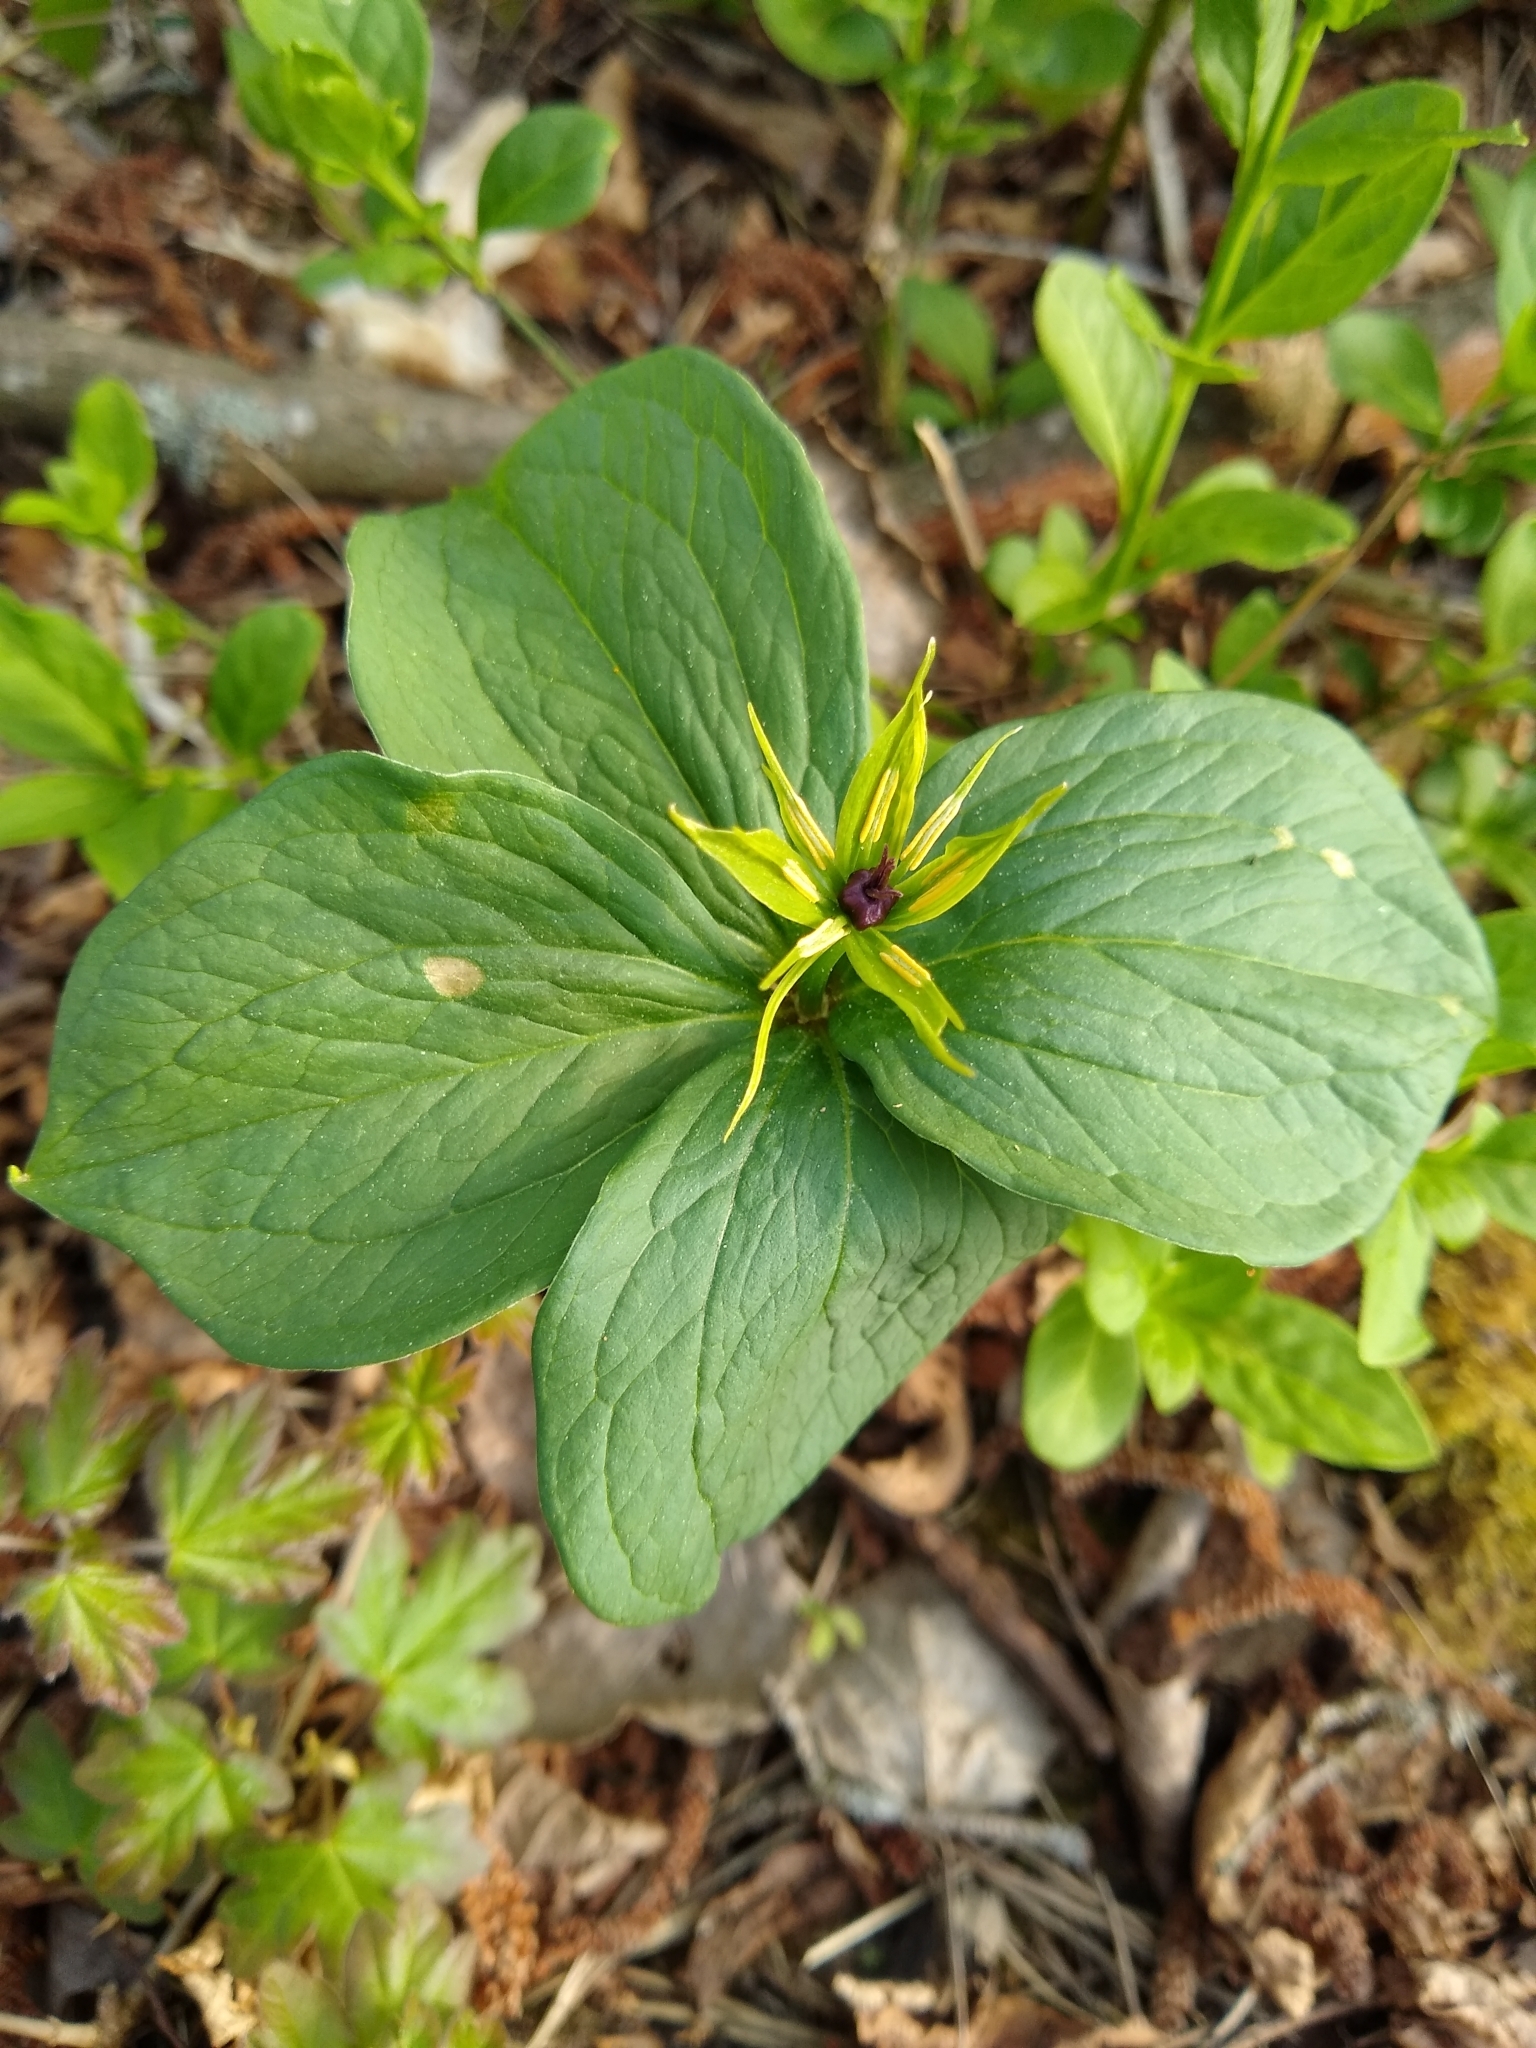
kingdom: Plantae
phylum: Tracheophyta
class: Liliopsida
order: Liliales
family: Melanthiaceae
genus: Paris
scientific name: Paris quadrifolia
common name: Herb-paris
